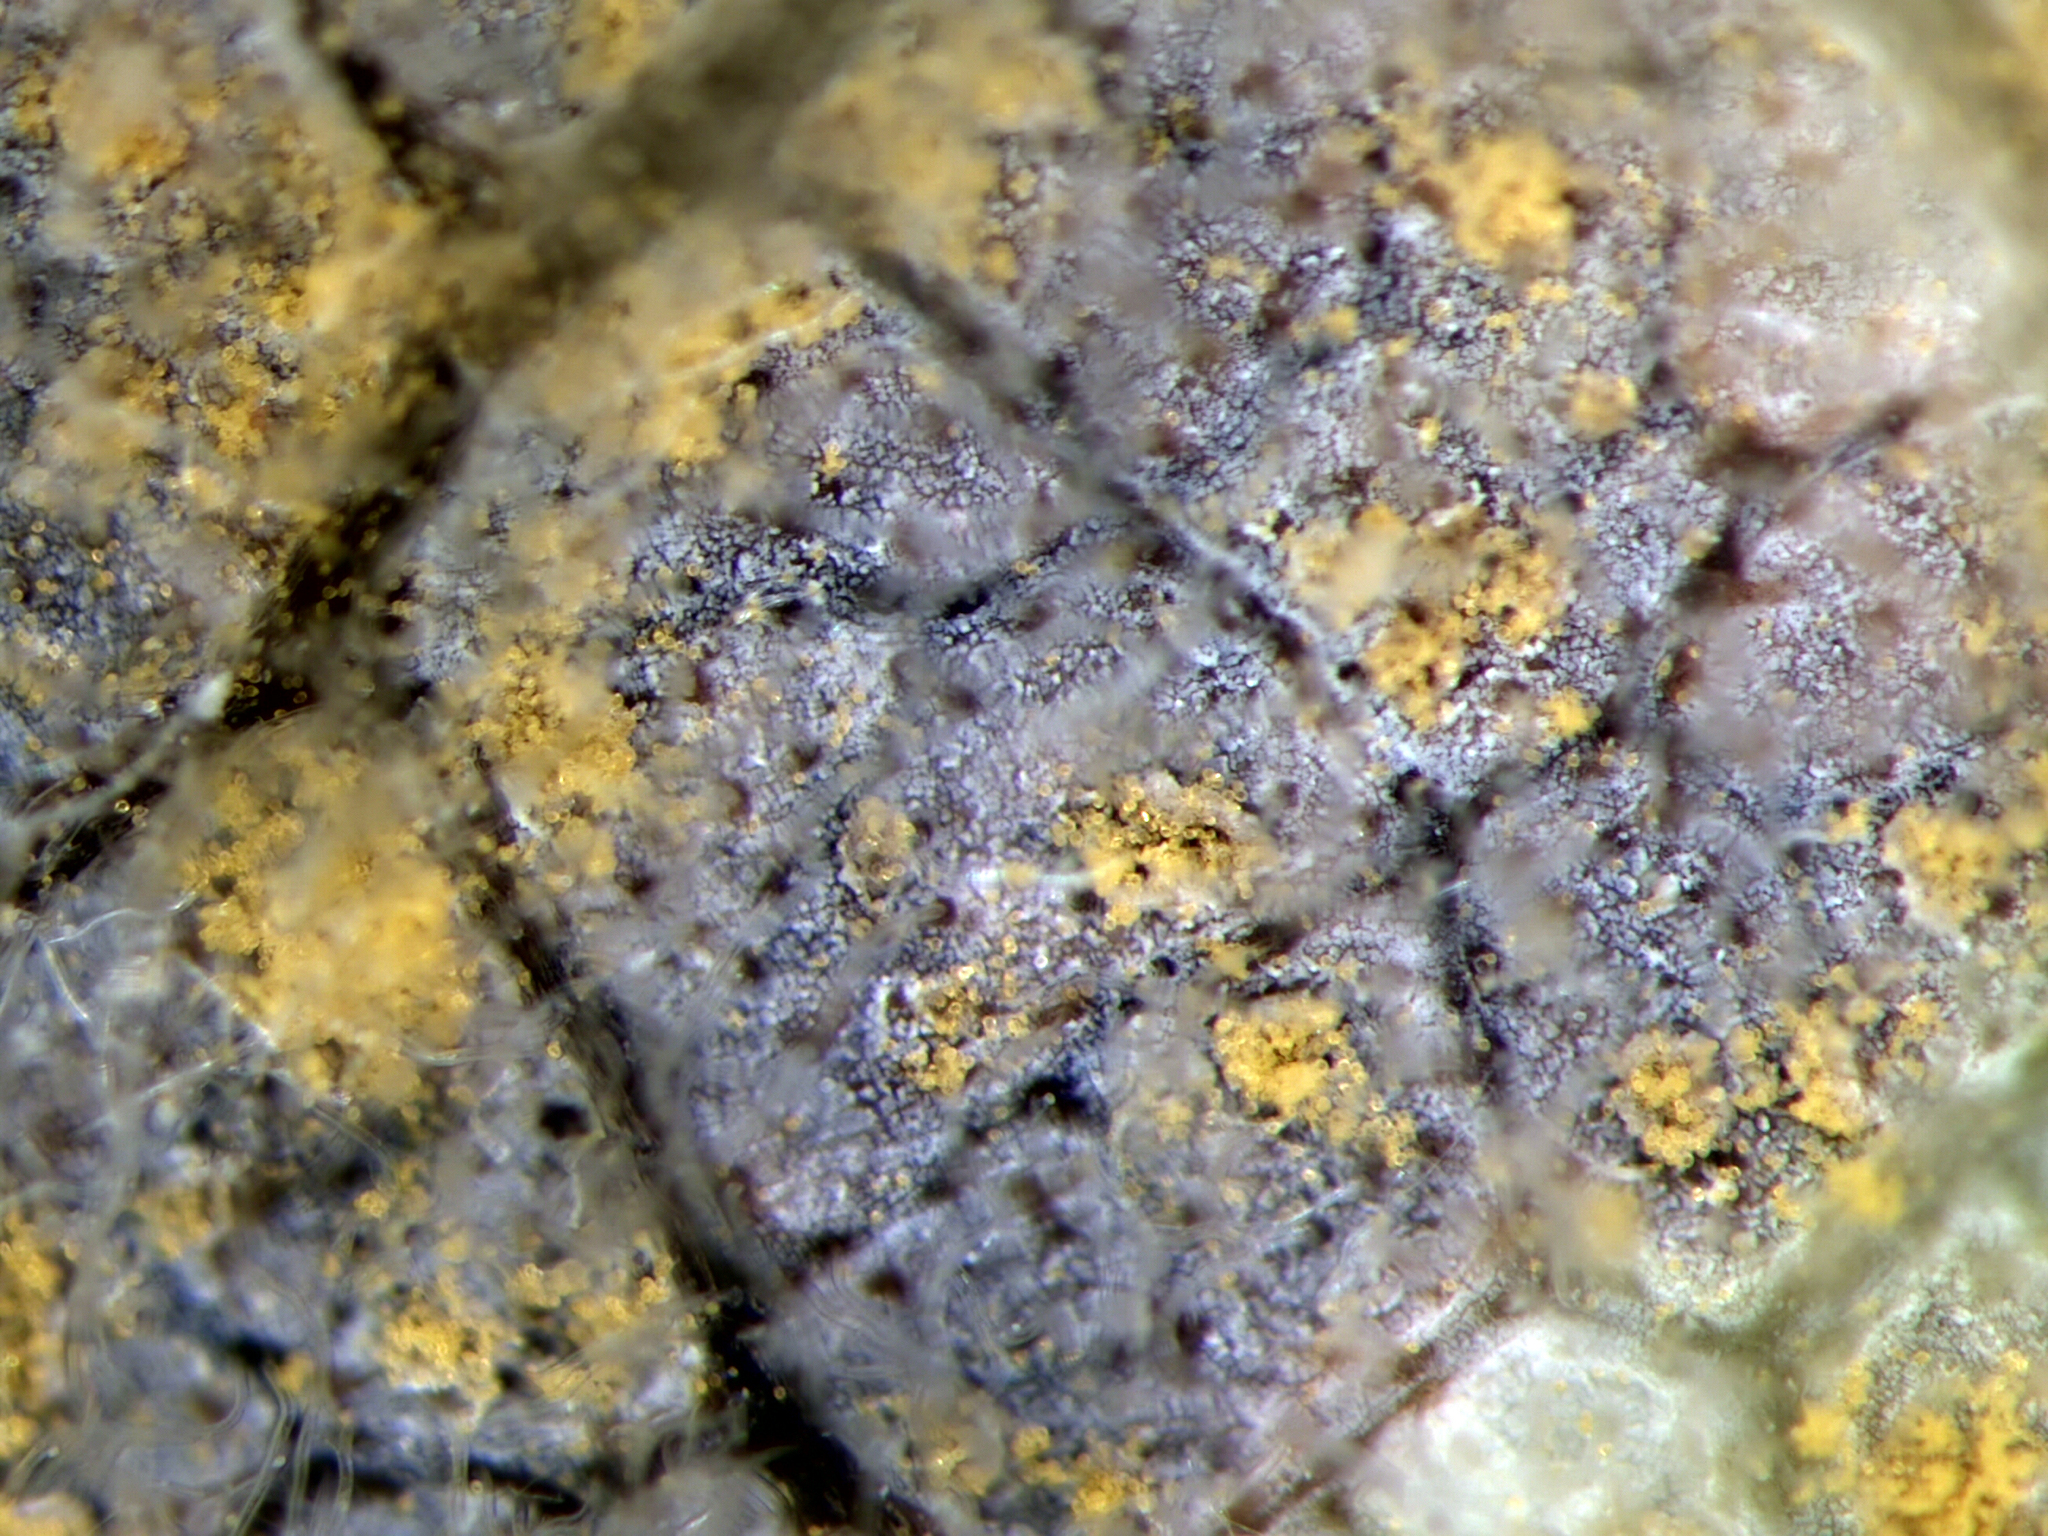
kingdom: Fungi
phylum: Basidiomycota
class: Pucciniomycetes
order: Pucciniales
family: Melampsoraceae
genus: Melampsora
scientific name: Melampsora epitea
